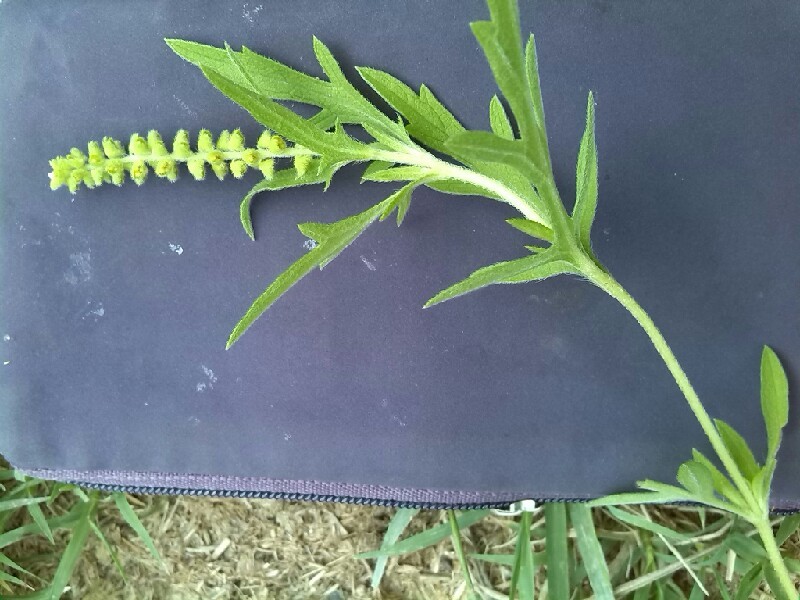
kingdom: Plantae
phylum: Tracheophyta
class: Magnoliopsida
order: Asterales
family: Asteraceae
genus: Ambrosia
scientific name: Ambrosia psilostachya
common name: Perennial ragweed
